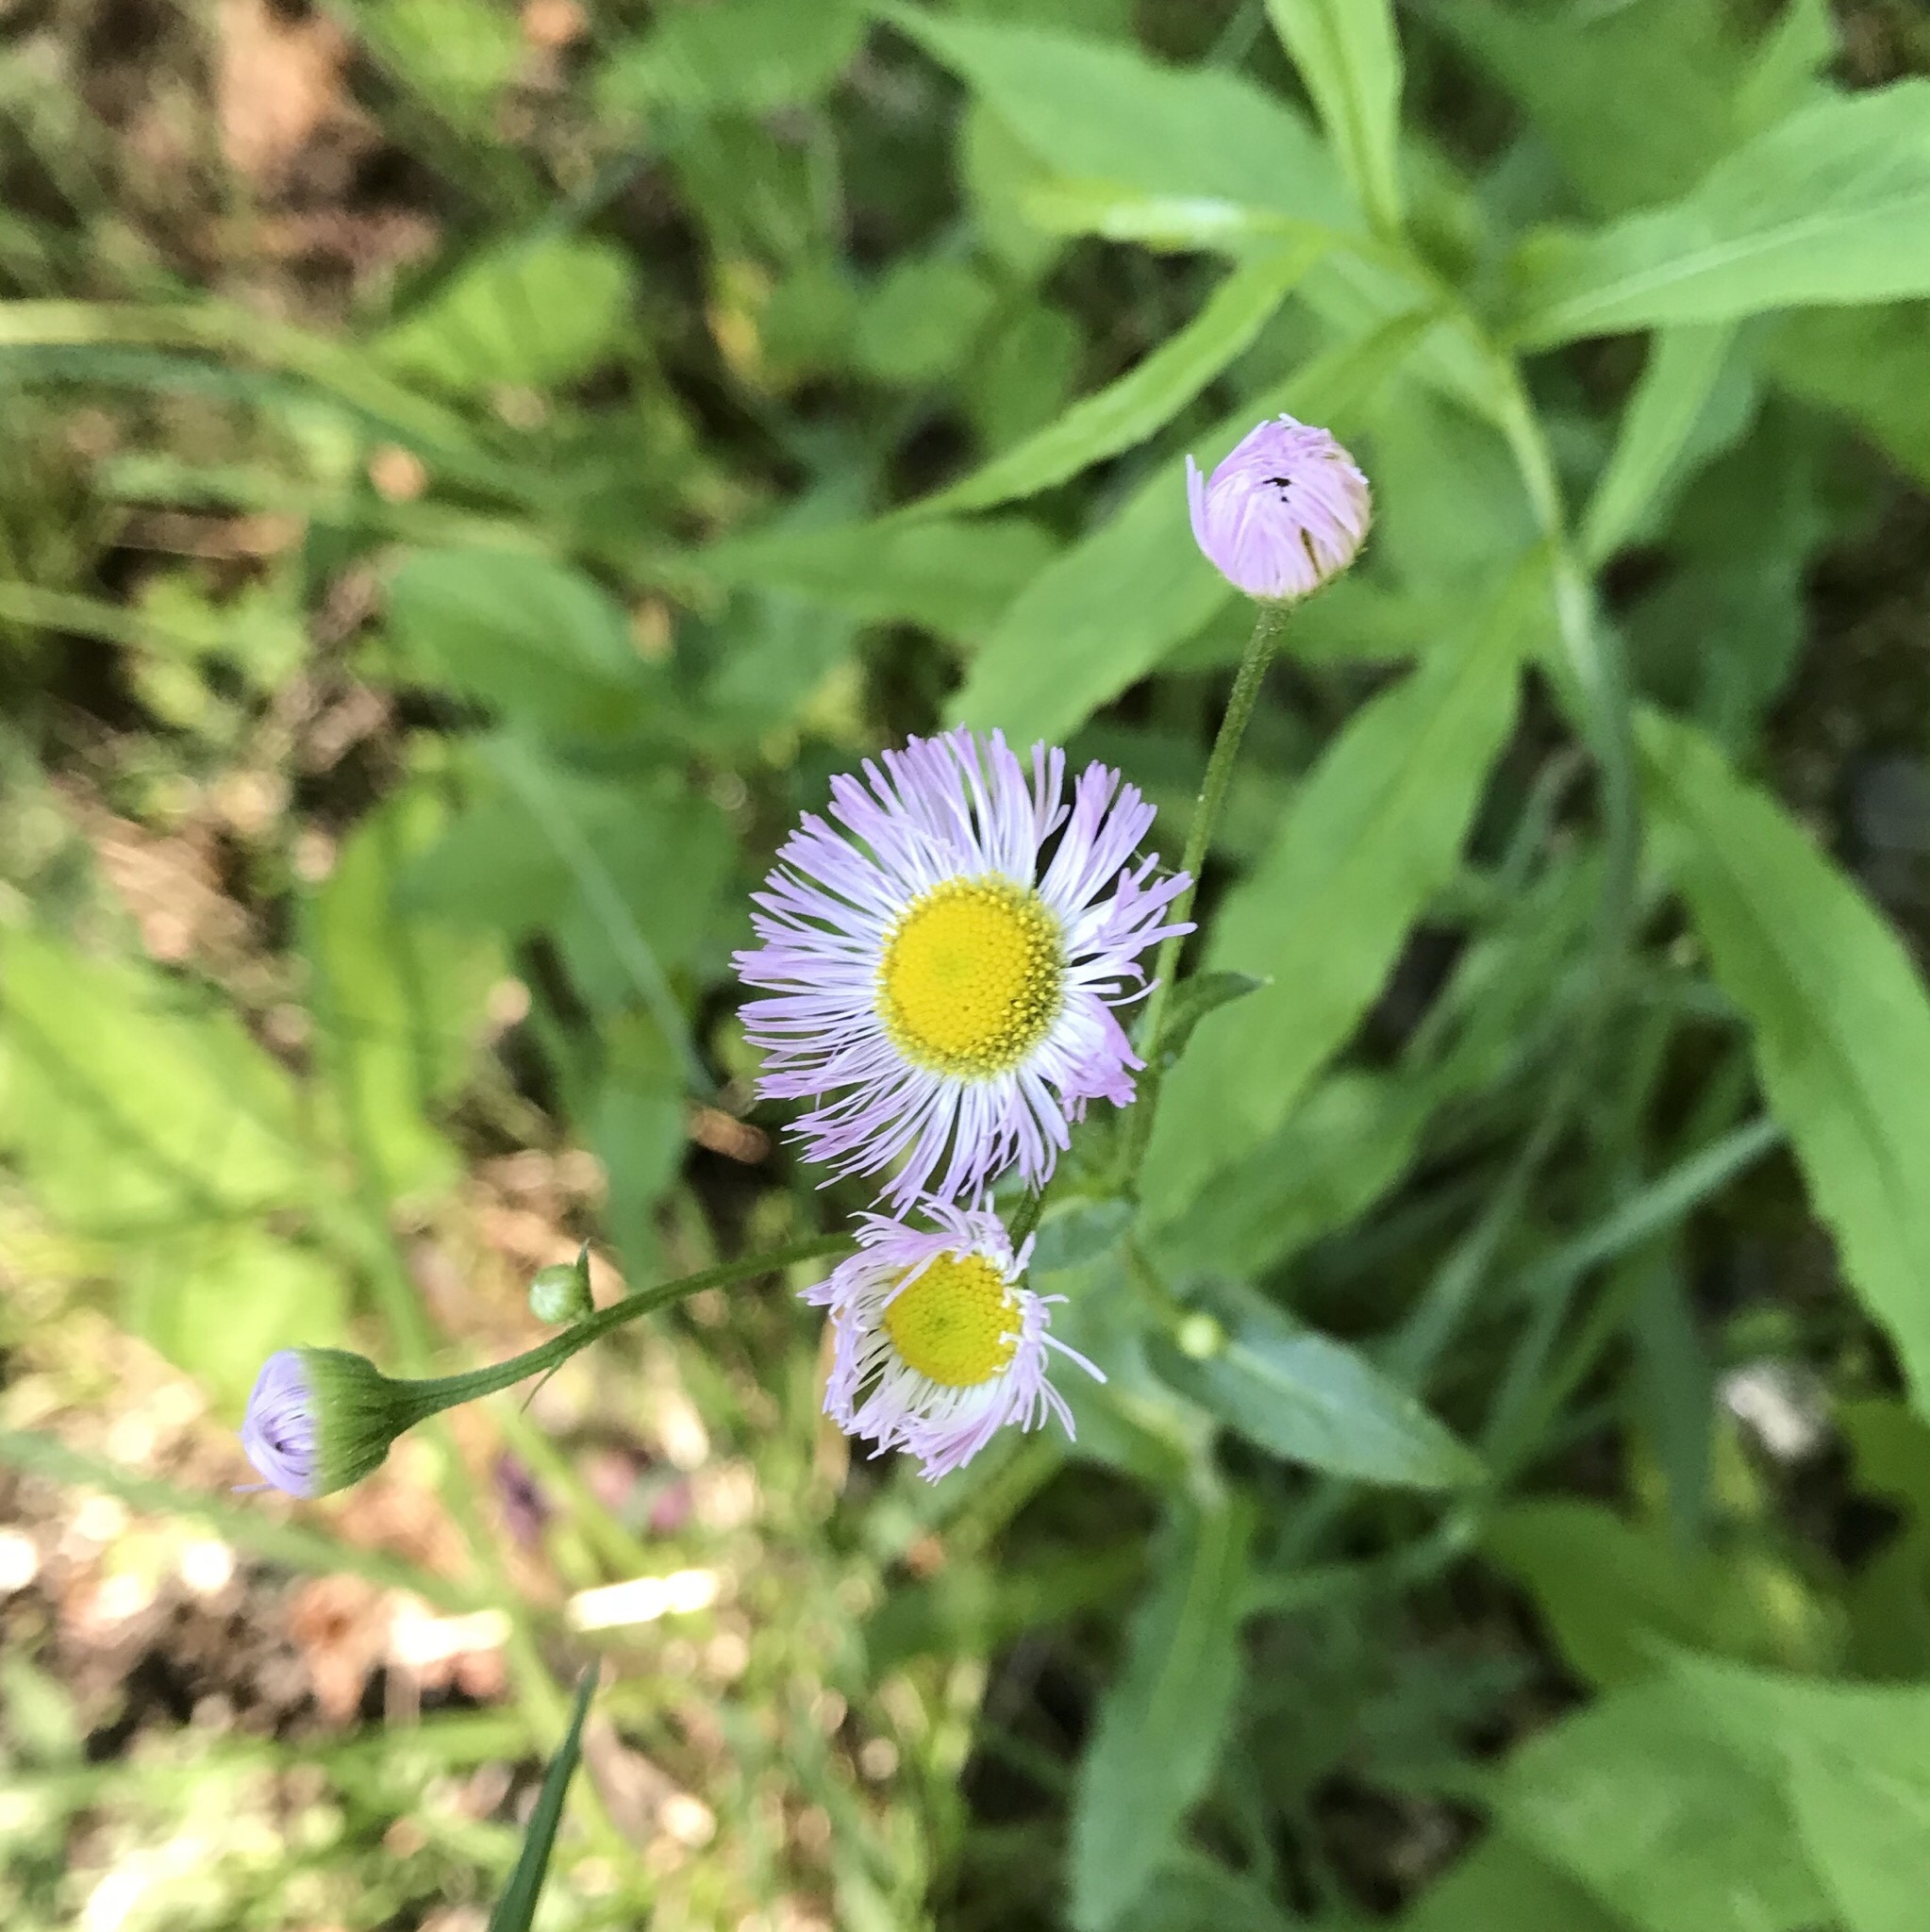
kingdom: Plantae
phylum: Tracheophyta
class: Magnoliopsida
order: Asterales
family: Asteraceae
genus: Erigeron
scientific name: Erigeron philadelphicus
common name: Robin's-plantain
